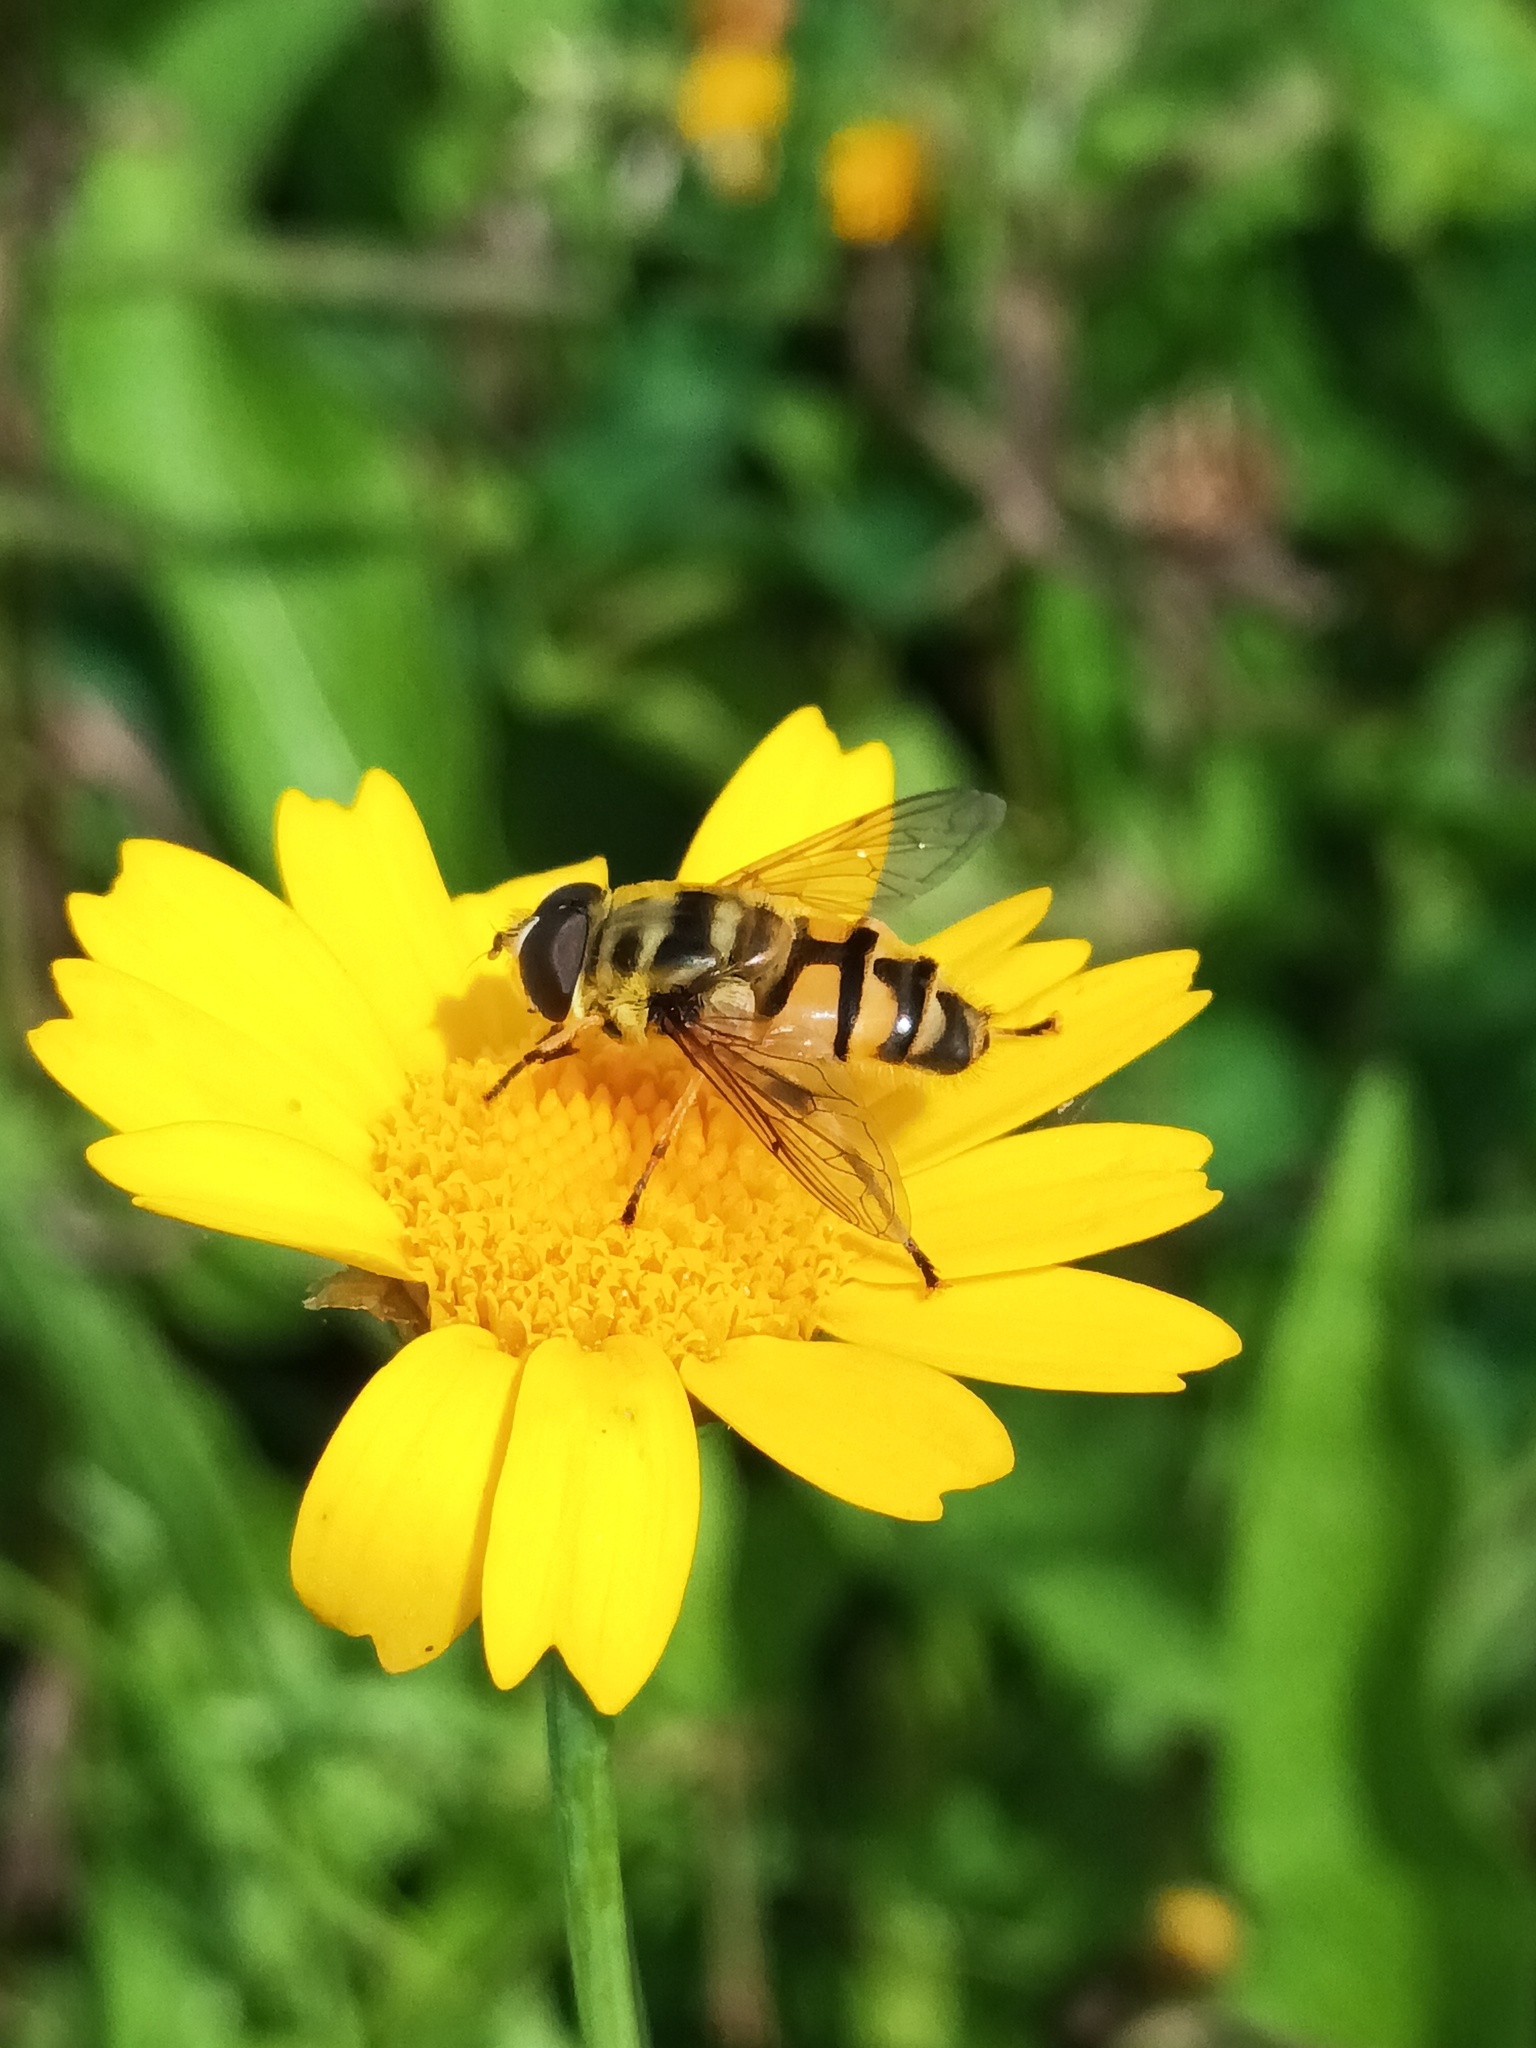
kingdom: Animalia
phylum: Arthropoda
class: Insecta
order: Diptera
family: Syrphidae
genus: Myathropa
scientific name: Myathropa florea
